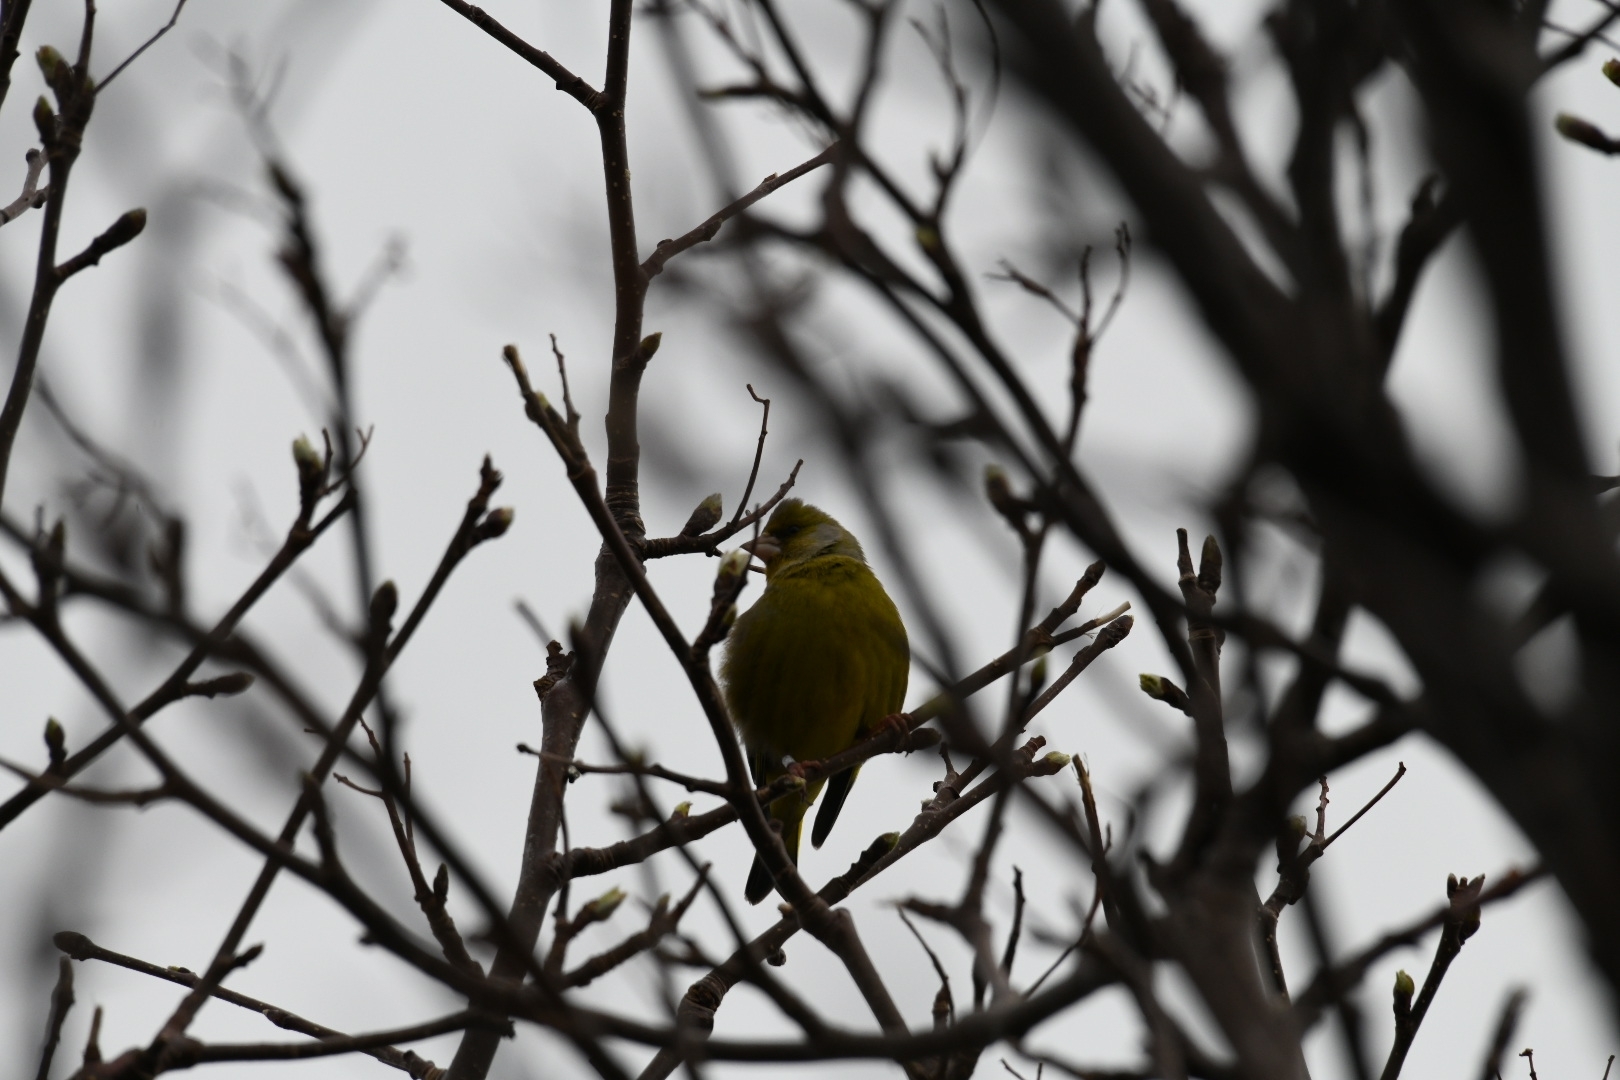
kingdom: Plantae
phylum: Tracheophyta
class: Liliopsida
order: Poales
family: Poaceae
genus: Chloris
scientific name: Chloris chloris
